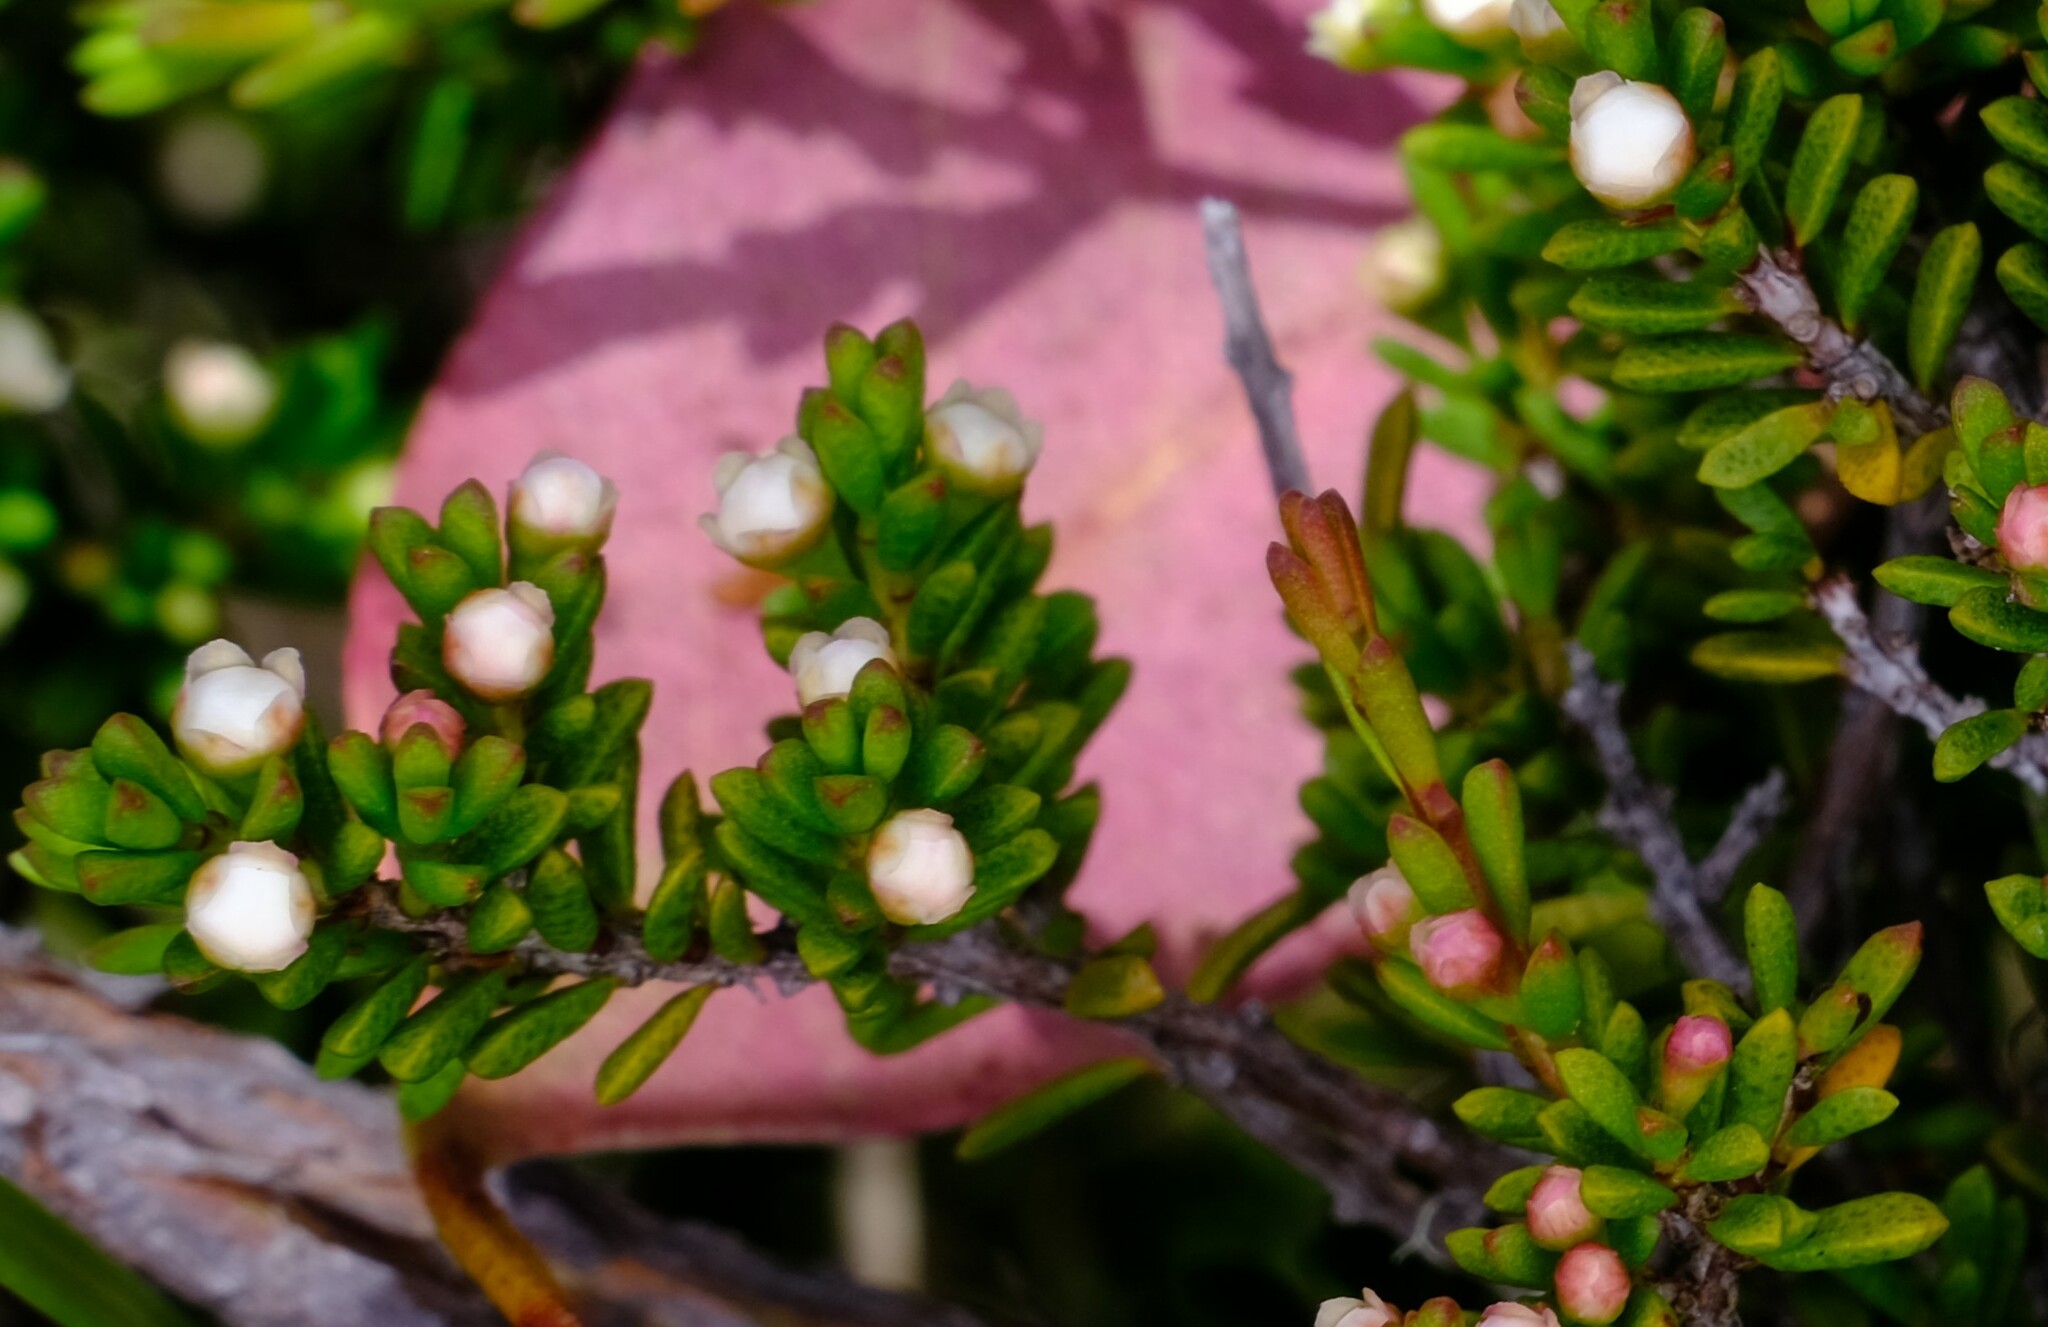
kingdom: Plantae
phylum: Tracheophyta
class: Magnoliopsida
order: Myrtales
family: Myrtaceae
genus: Baeckea
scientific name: Baeckea gunniana
